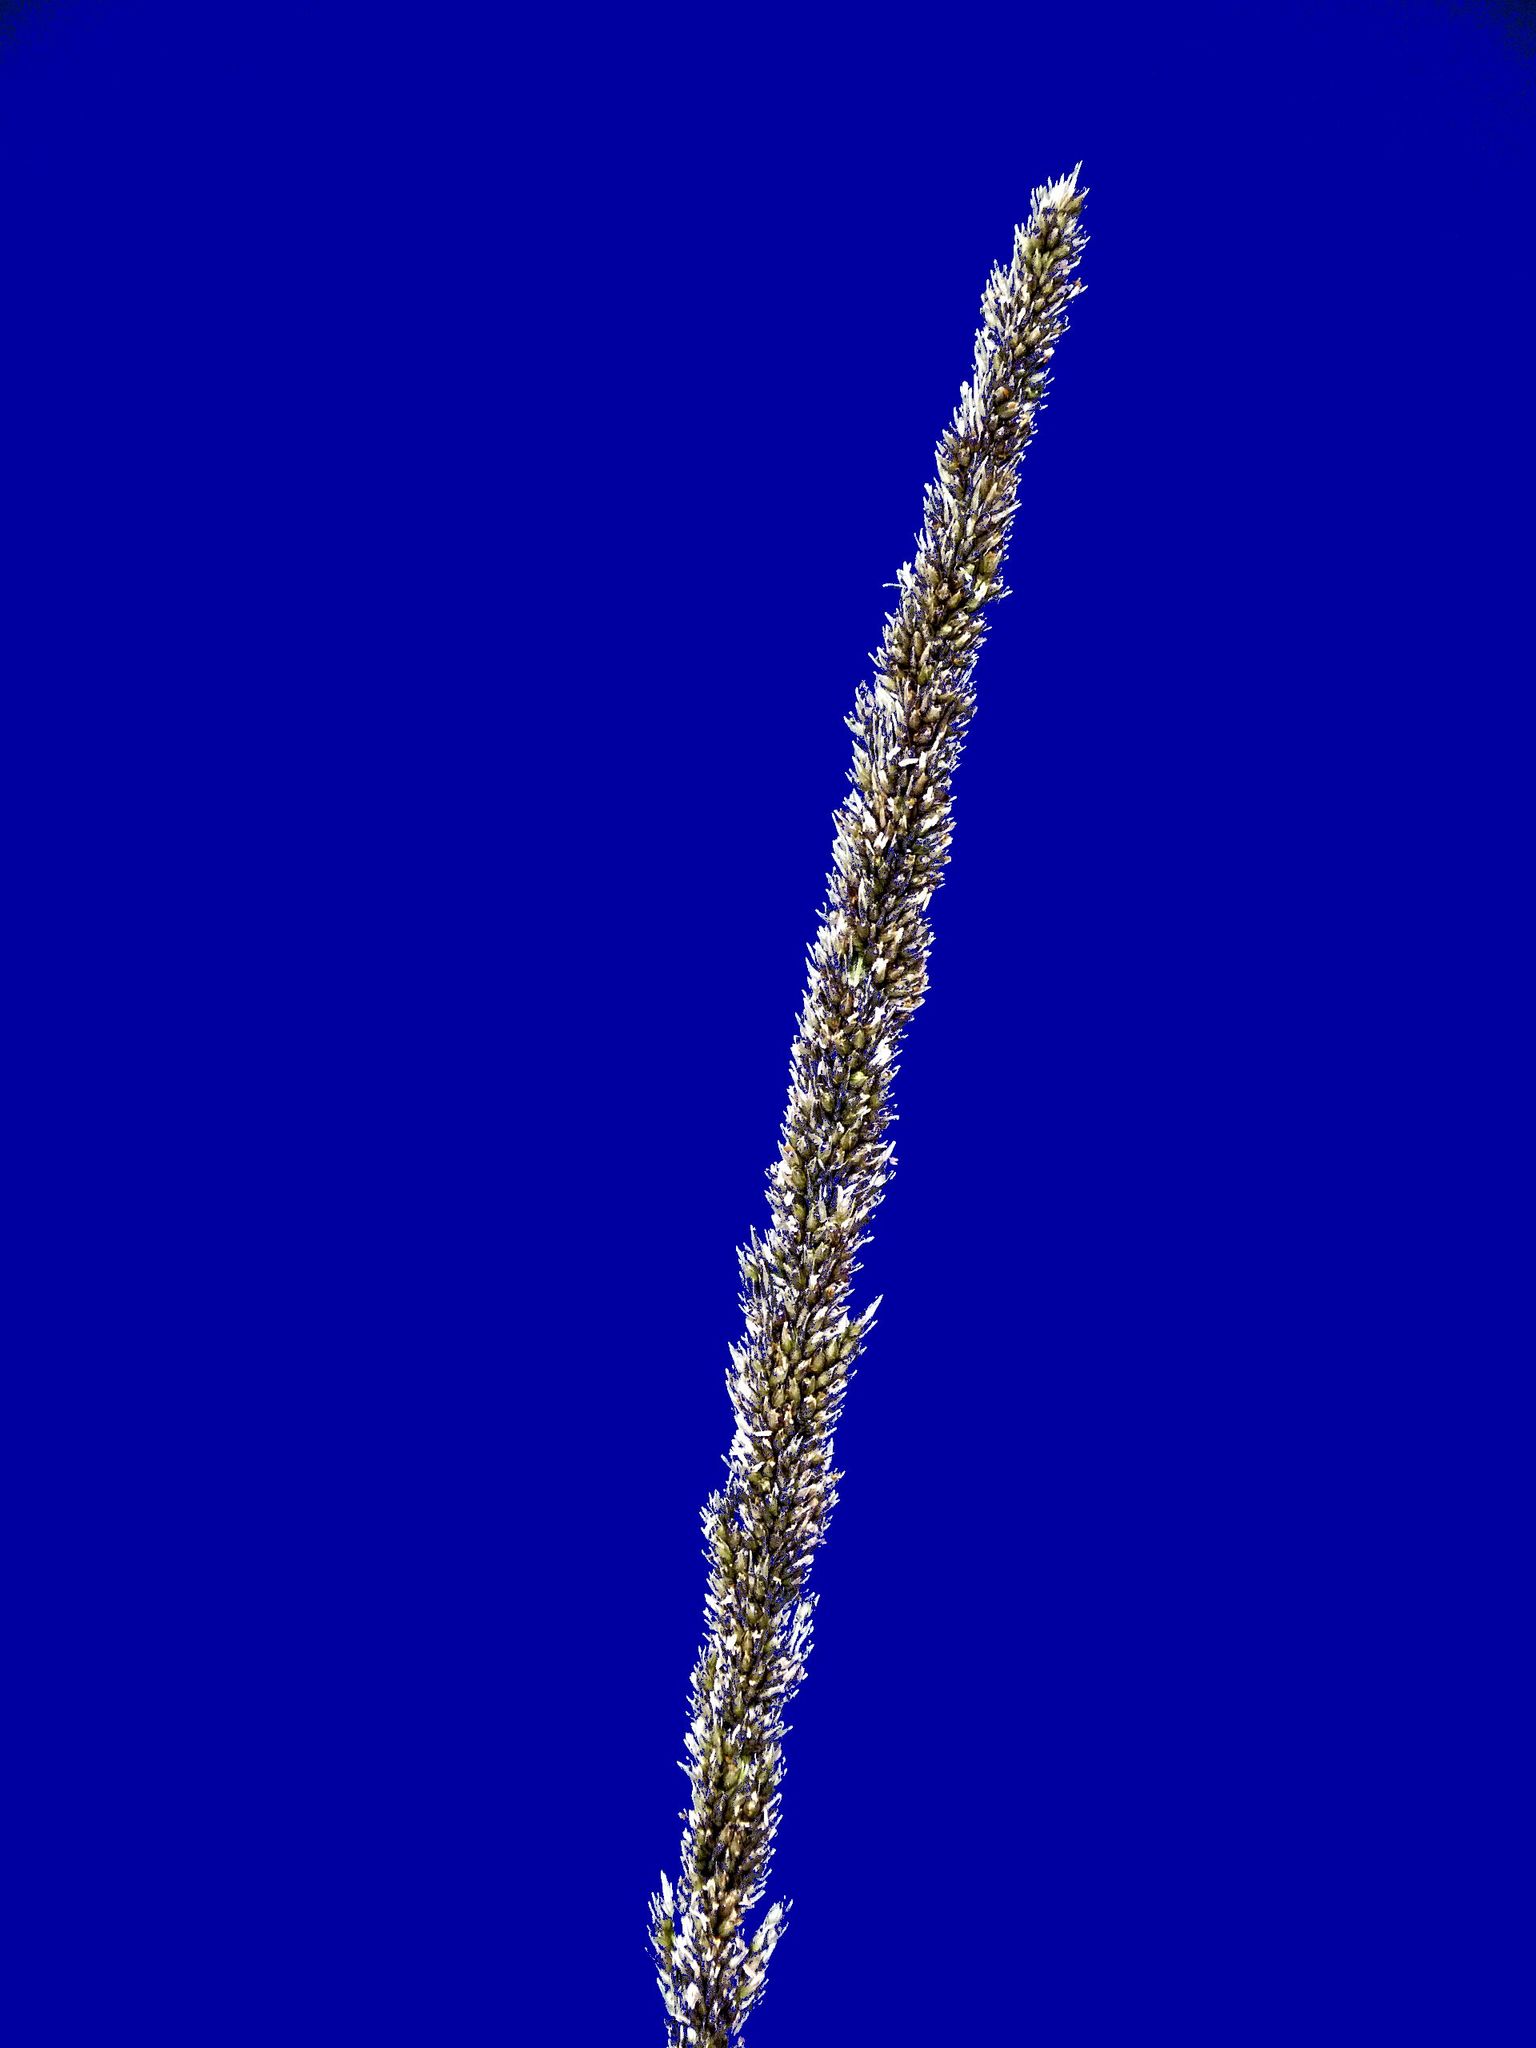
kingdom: Plantae
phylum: Tracheophyta
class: Liliopsida
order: Poales
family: Poaceae
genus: Sporobolus
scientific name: Sporobolus africanus
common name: African dropseed
